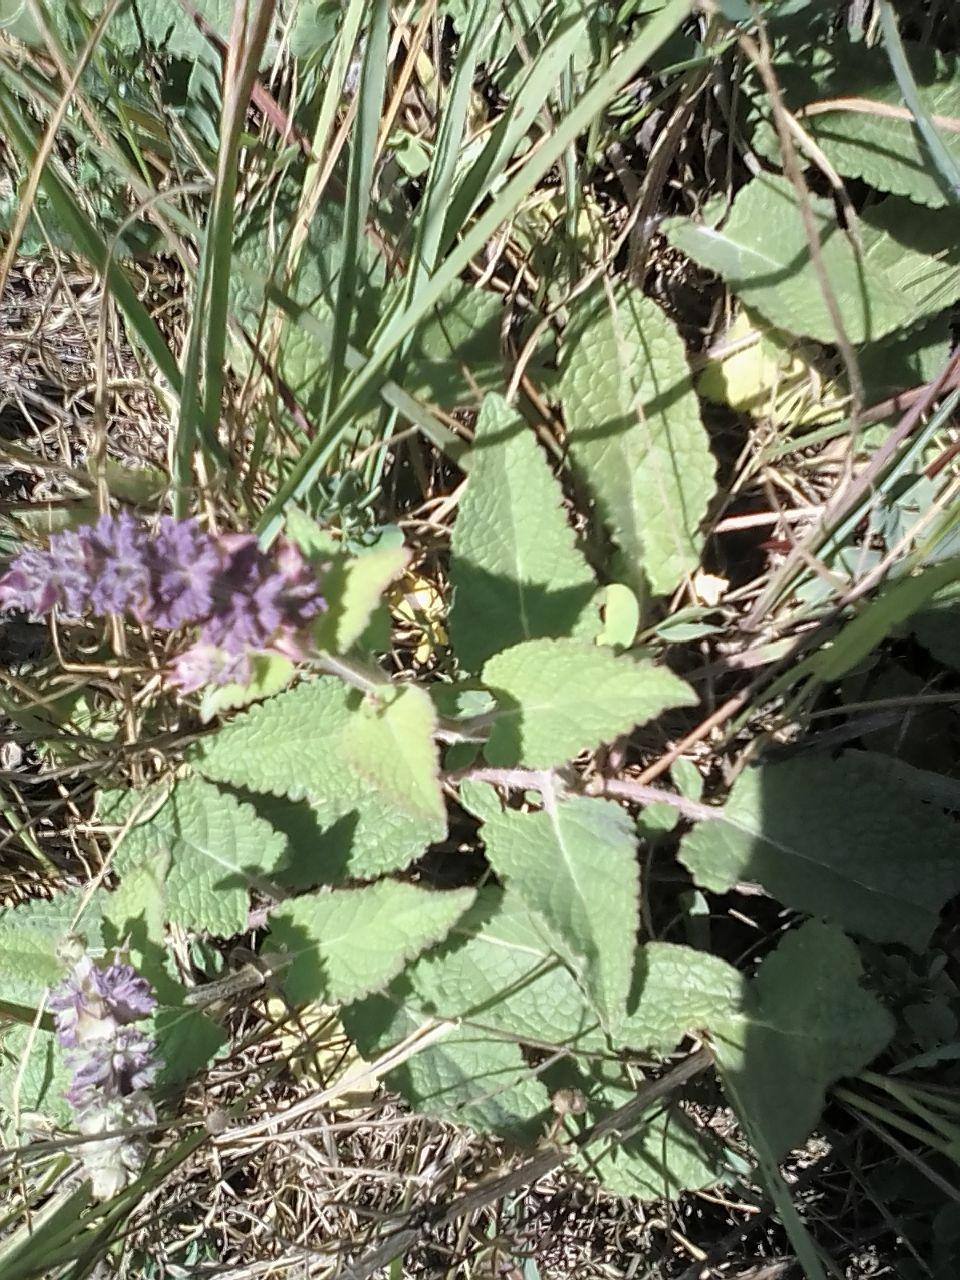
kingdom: Plantae
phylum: Tracheophyta
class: Magnoliopsida
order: Lamiales
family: Lamiaceae
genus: Salvia
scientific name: Salvia verticillata
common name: Whorled clary
